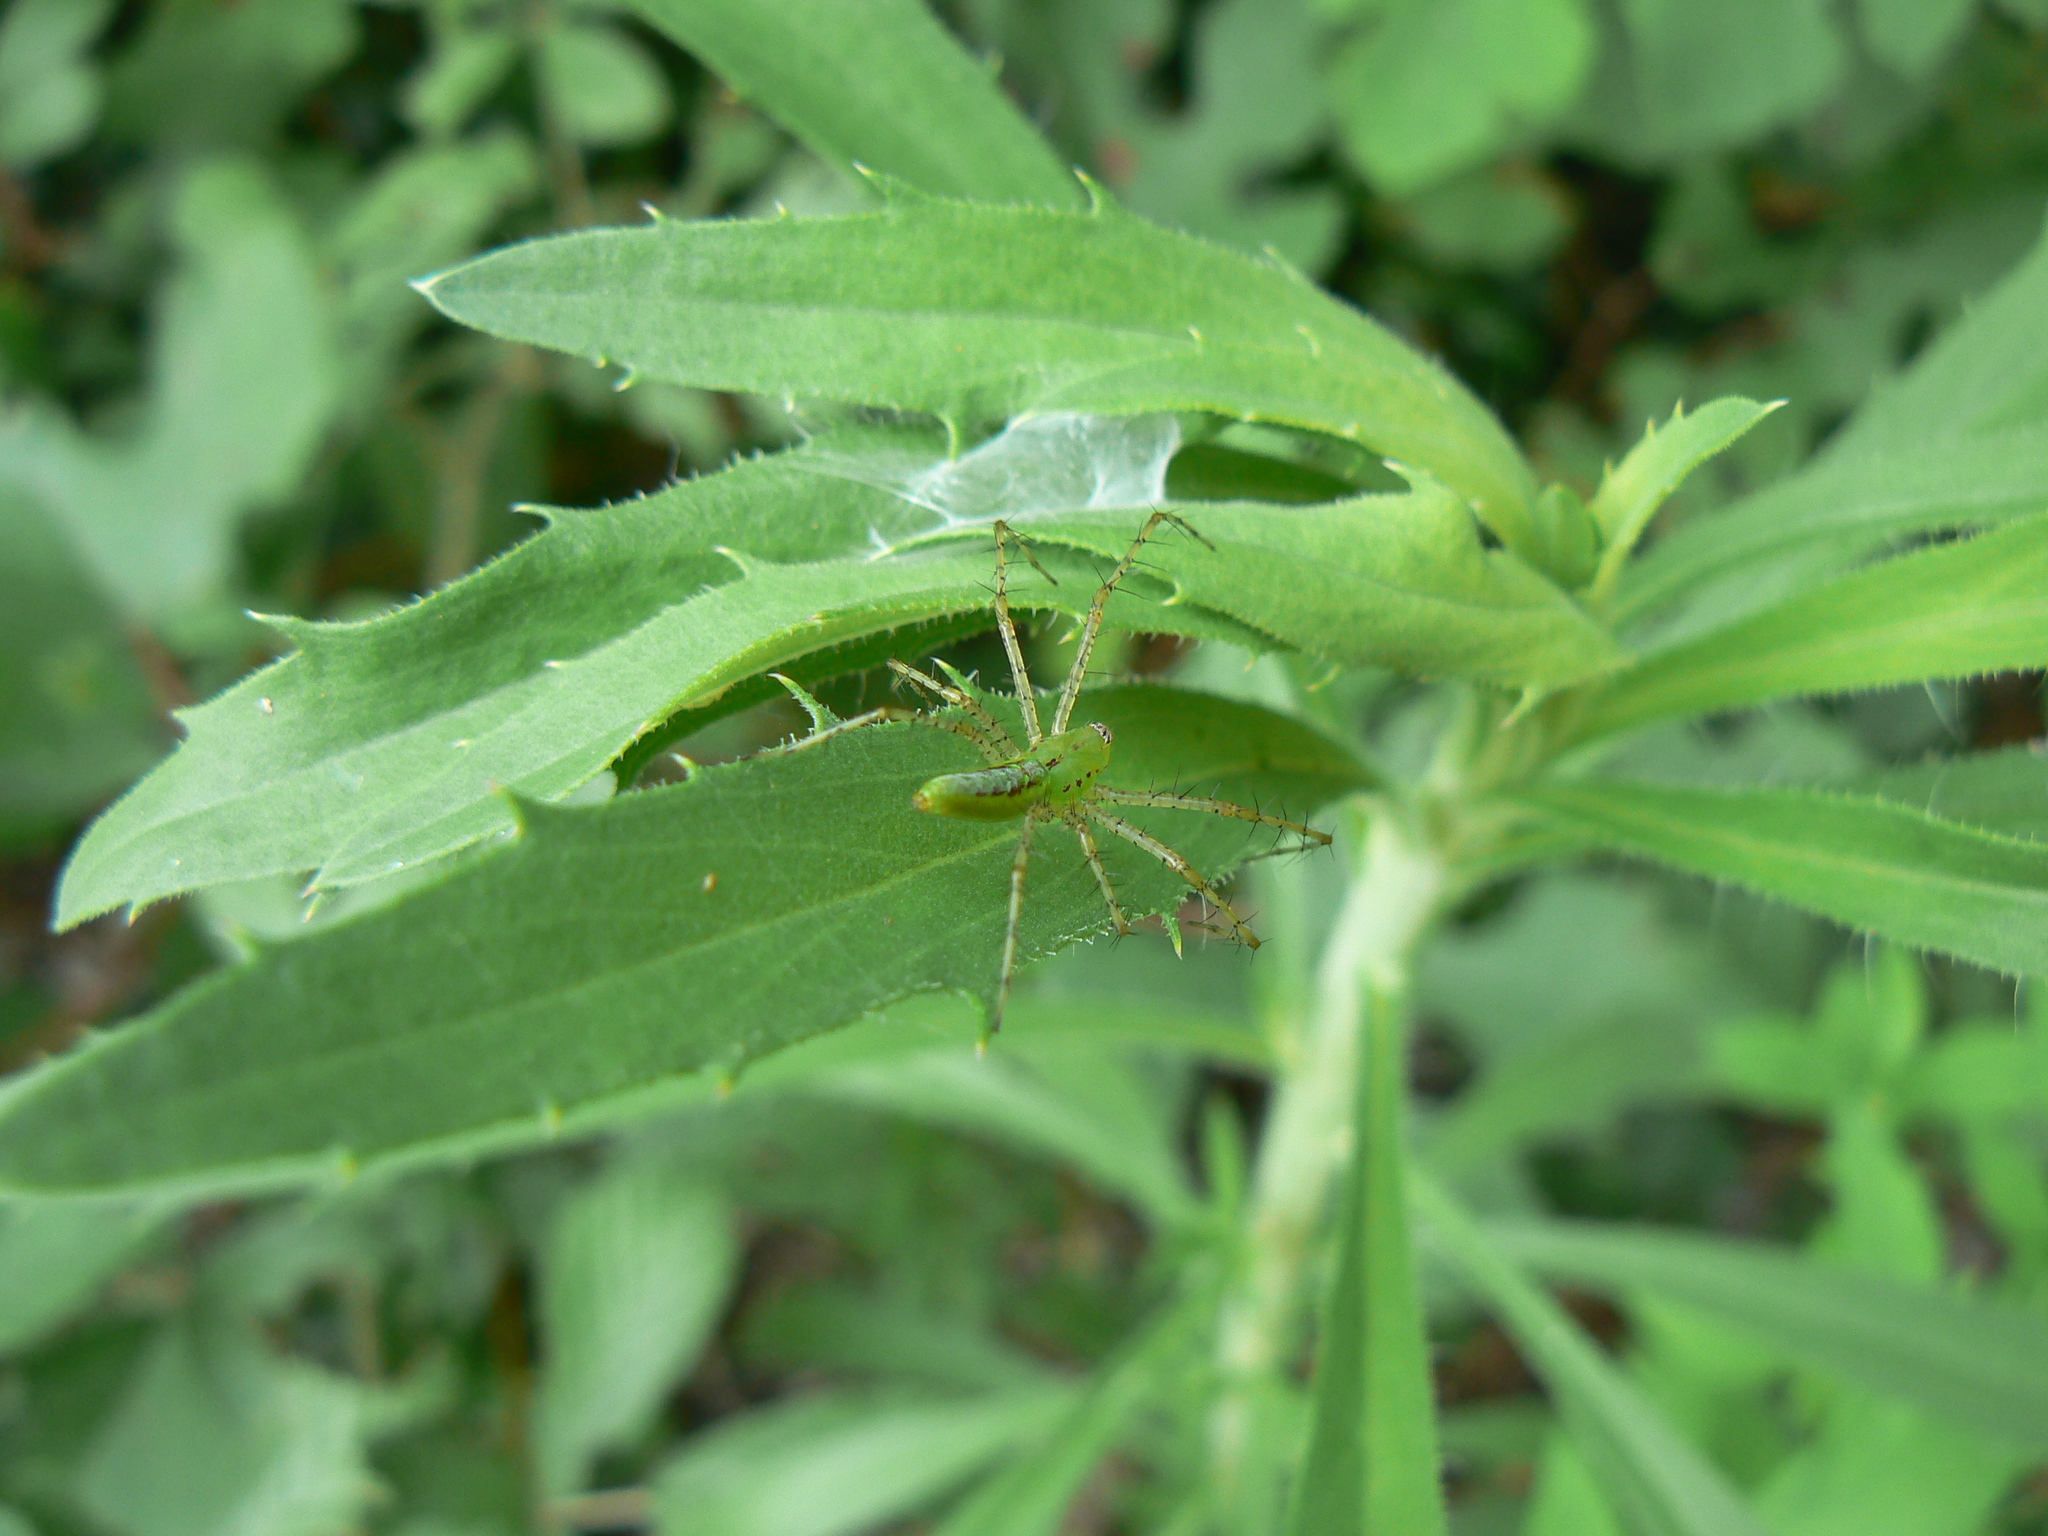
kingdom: Animalia
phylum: Arthropoda
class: Arachnida
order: Araneae
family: Oxyopidae
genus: Peucetia
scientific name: Peucetia viridans
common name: Lynx spiders
